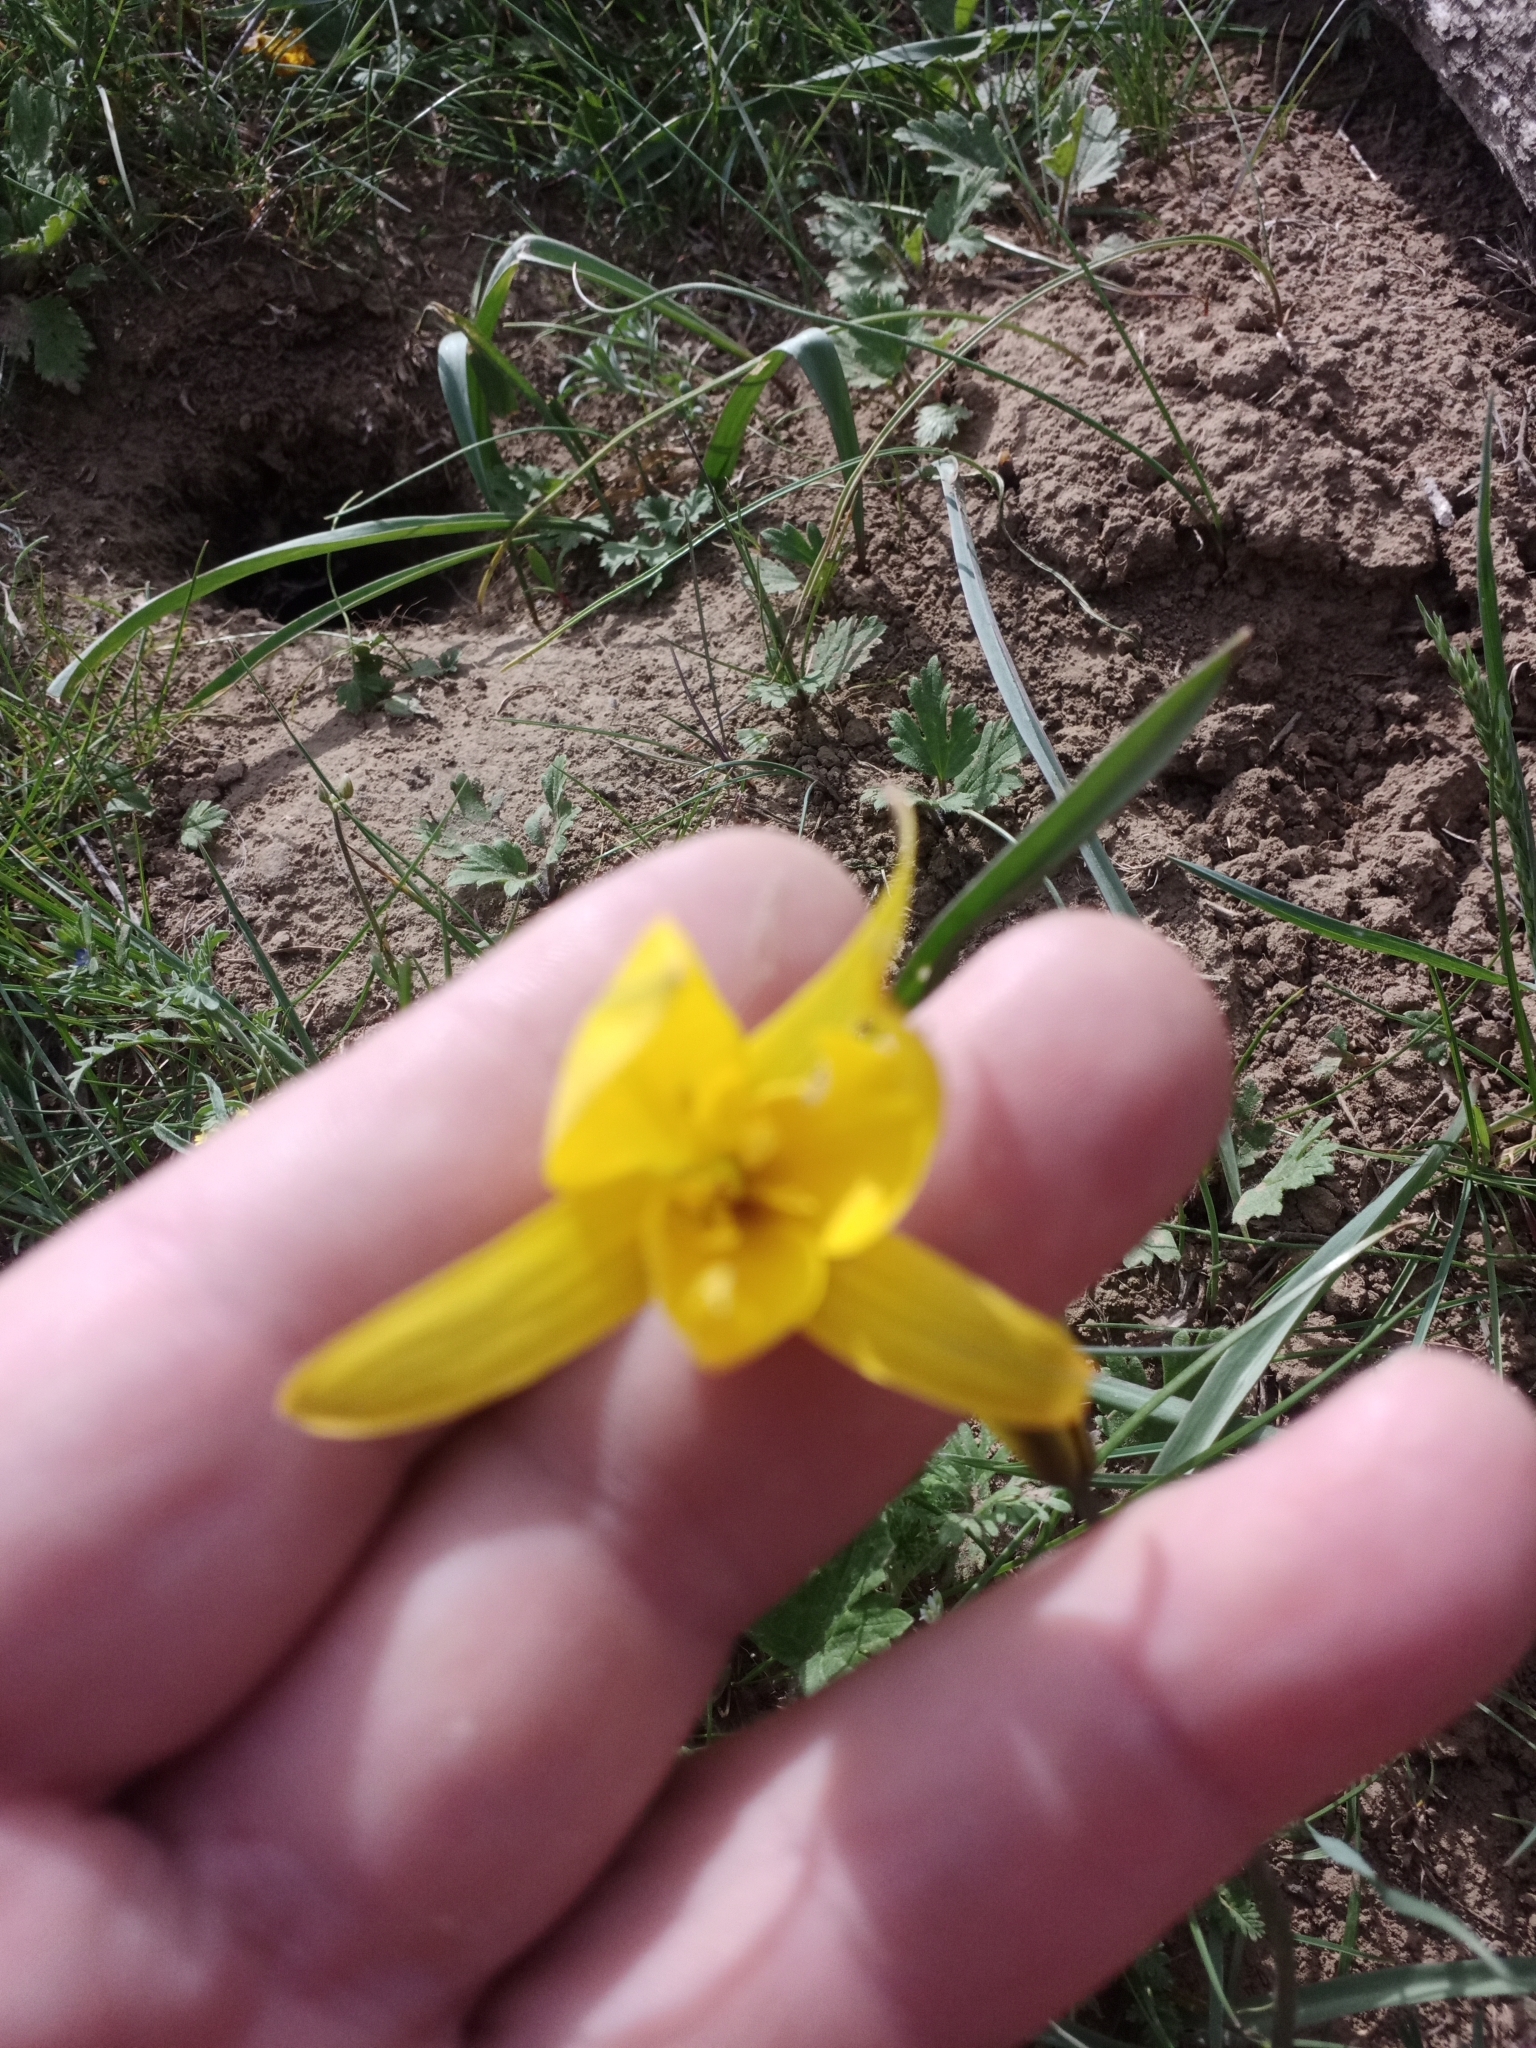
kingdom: Plantae
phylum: Tracheophyta
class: Liliopsida
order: Liliales
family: Liliaceae
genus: Tulipa
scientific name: Tulipa sylvestris
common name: Wild tulip
